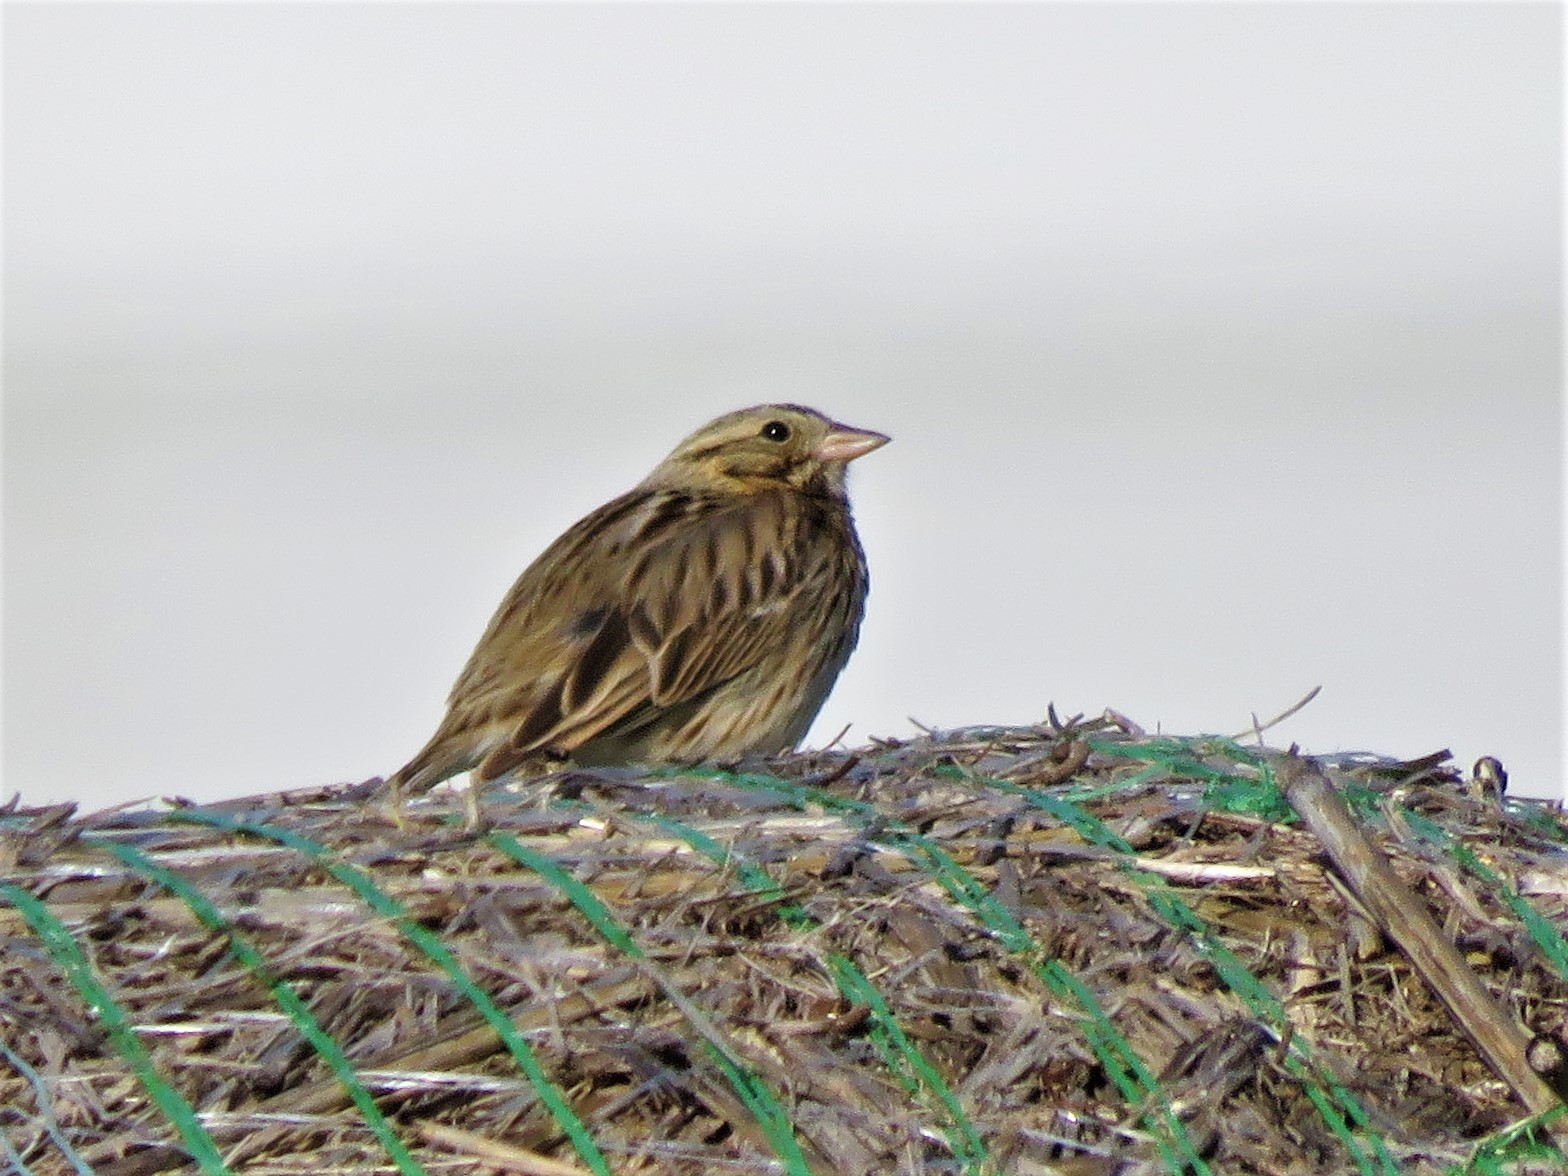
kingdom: Animalia
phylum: Chordata
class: Aves
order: Passeriformes
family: Passerellidae
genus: Passerculus
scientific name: Passerculus sandwichensis
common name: Savannah sparrow
